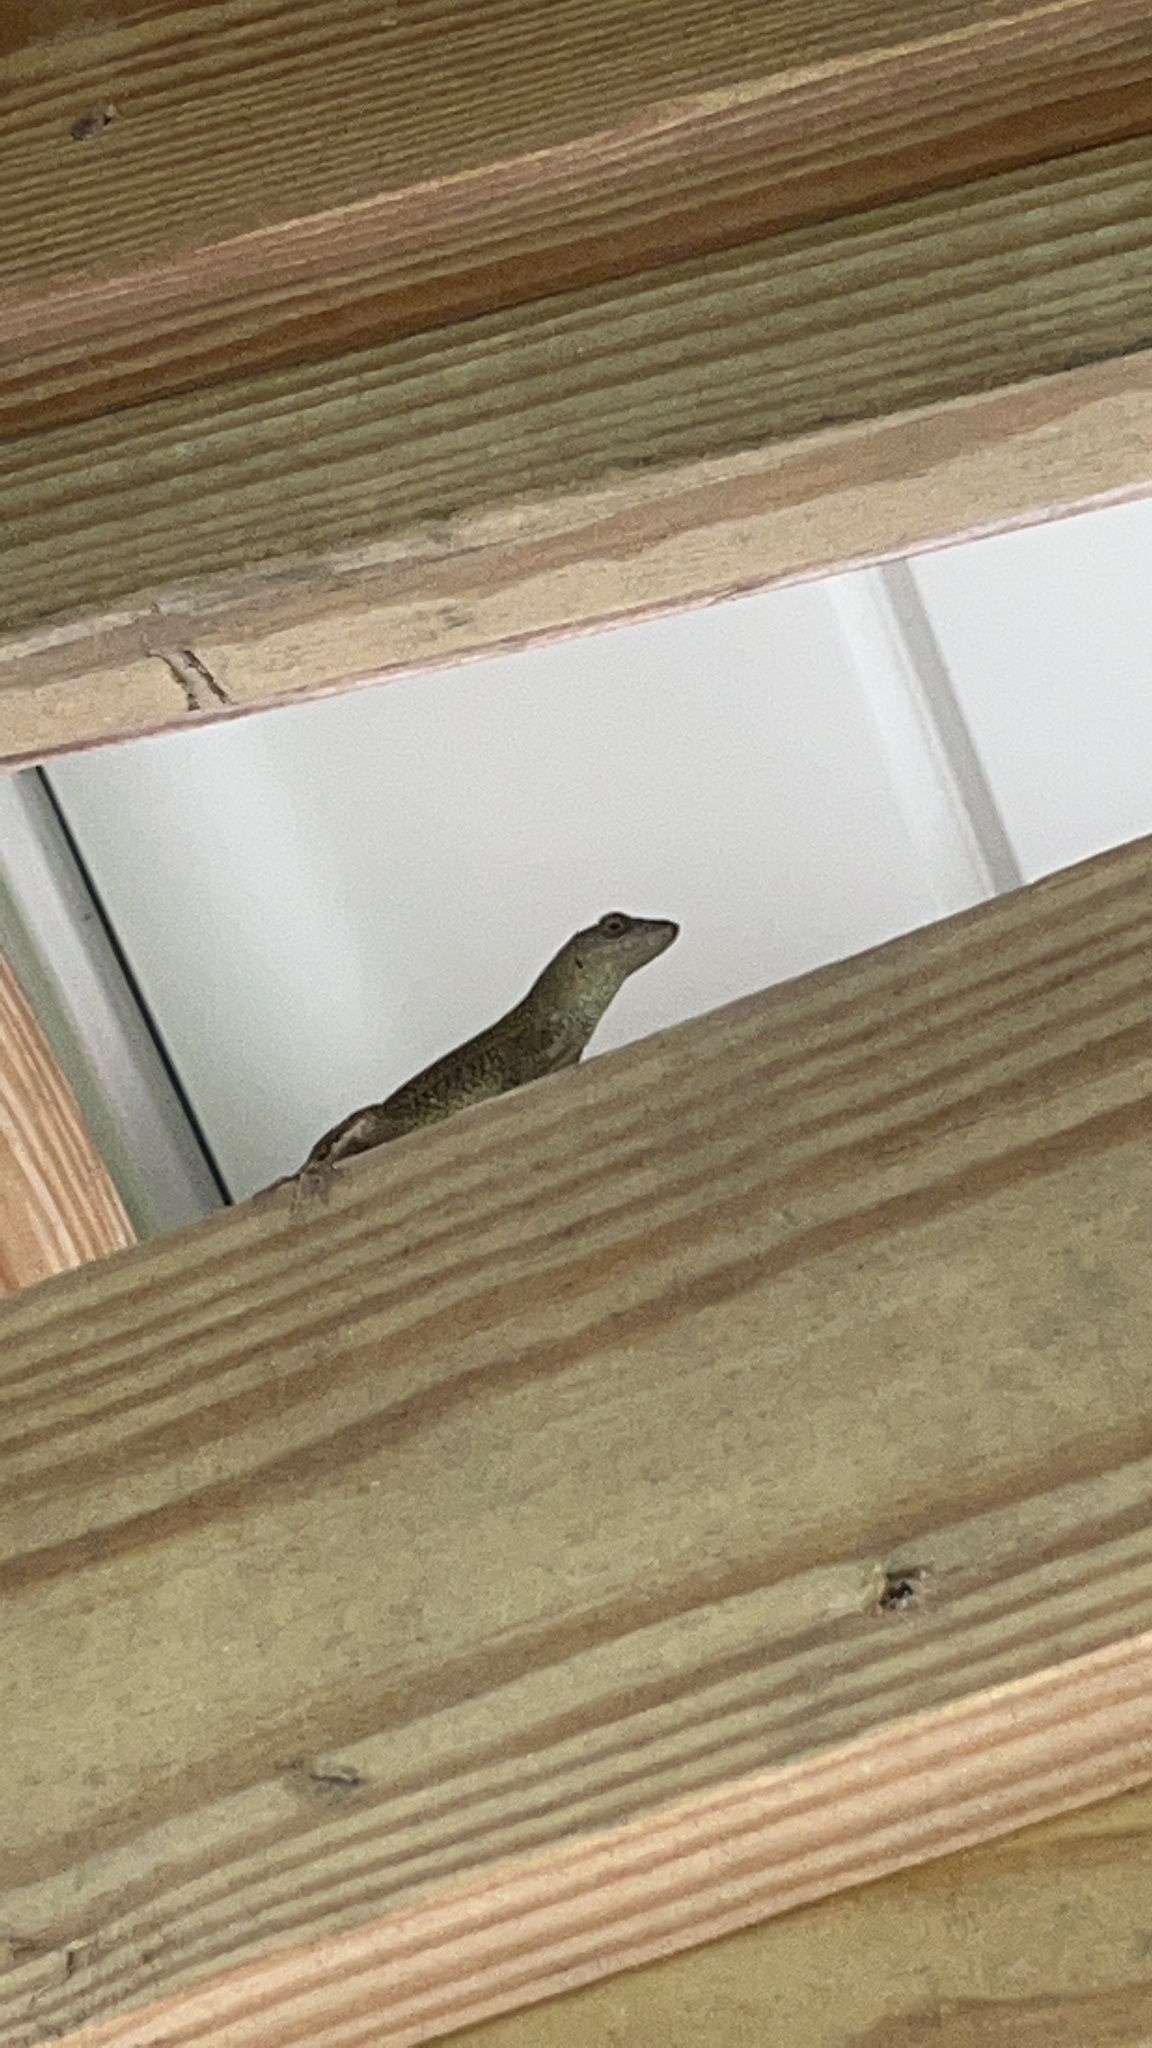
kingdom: Animalia
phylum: Chordata
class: Squamata
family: Dactyloidae
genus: Anolis
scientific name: Anolis sagrei
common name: Brown anole
